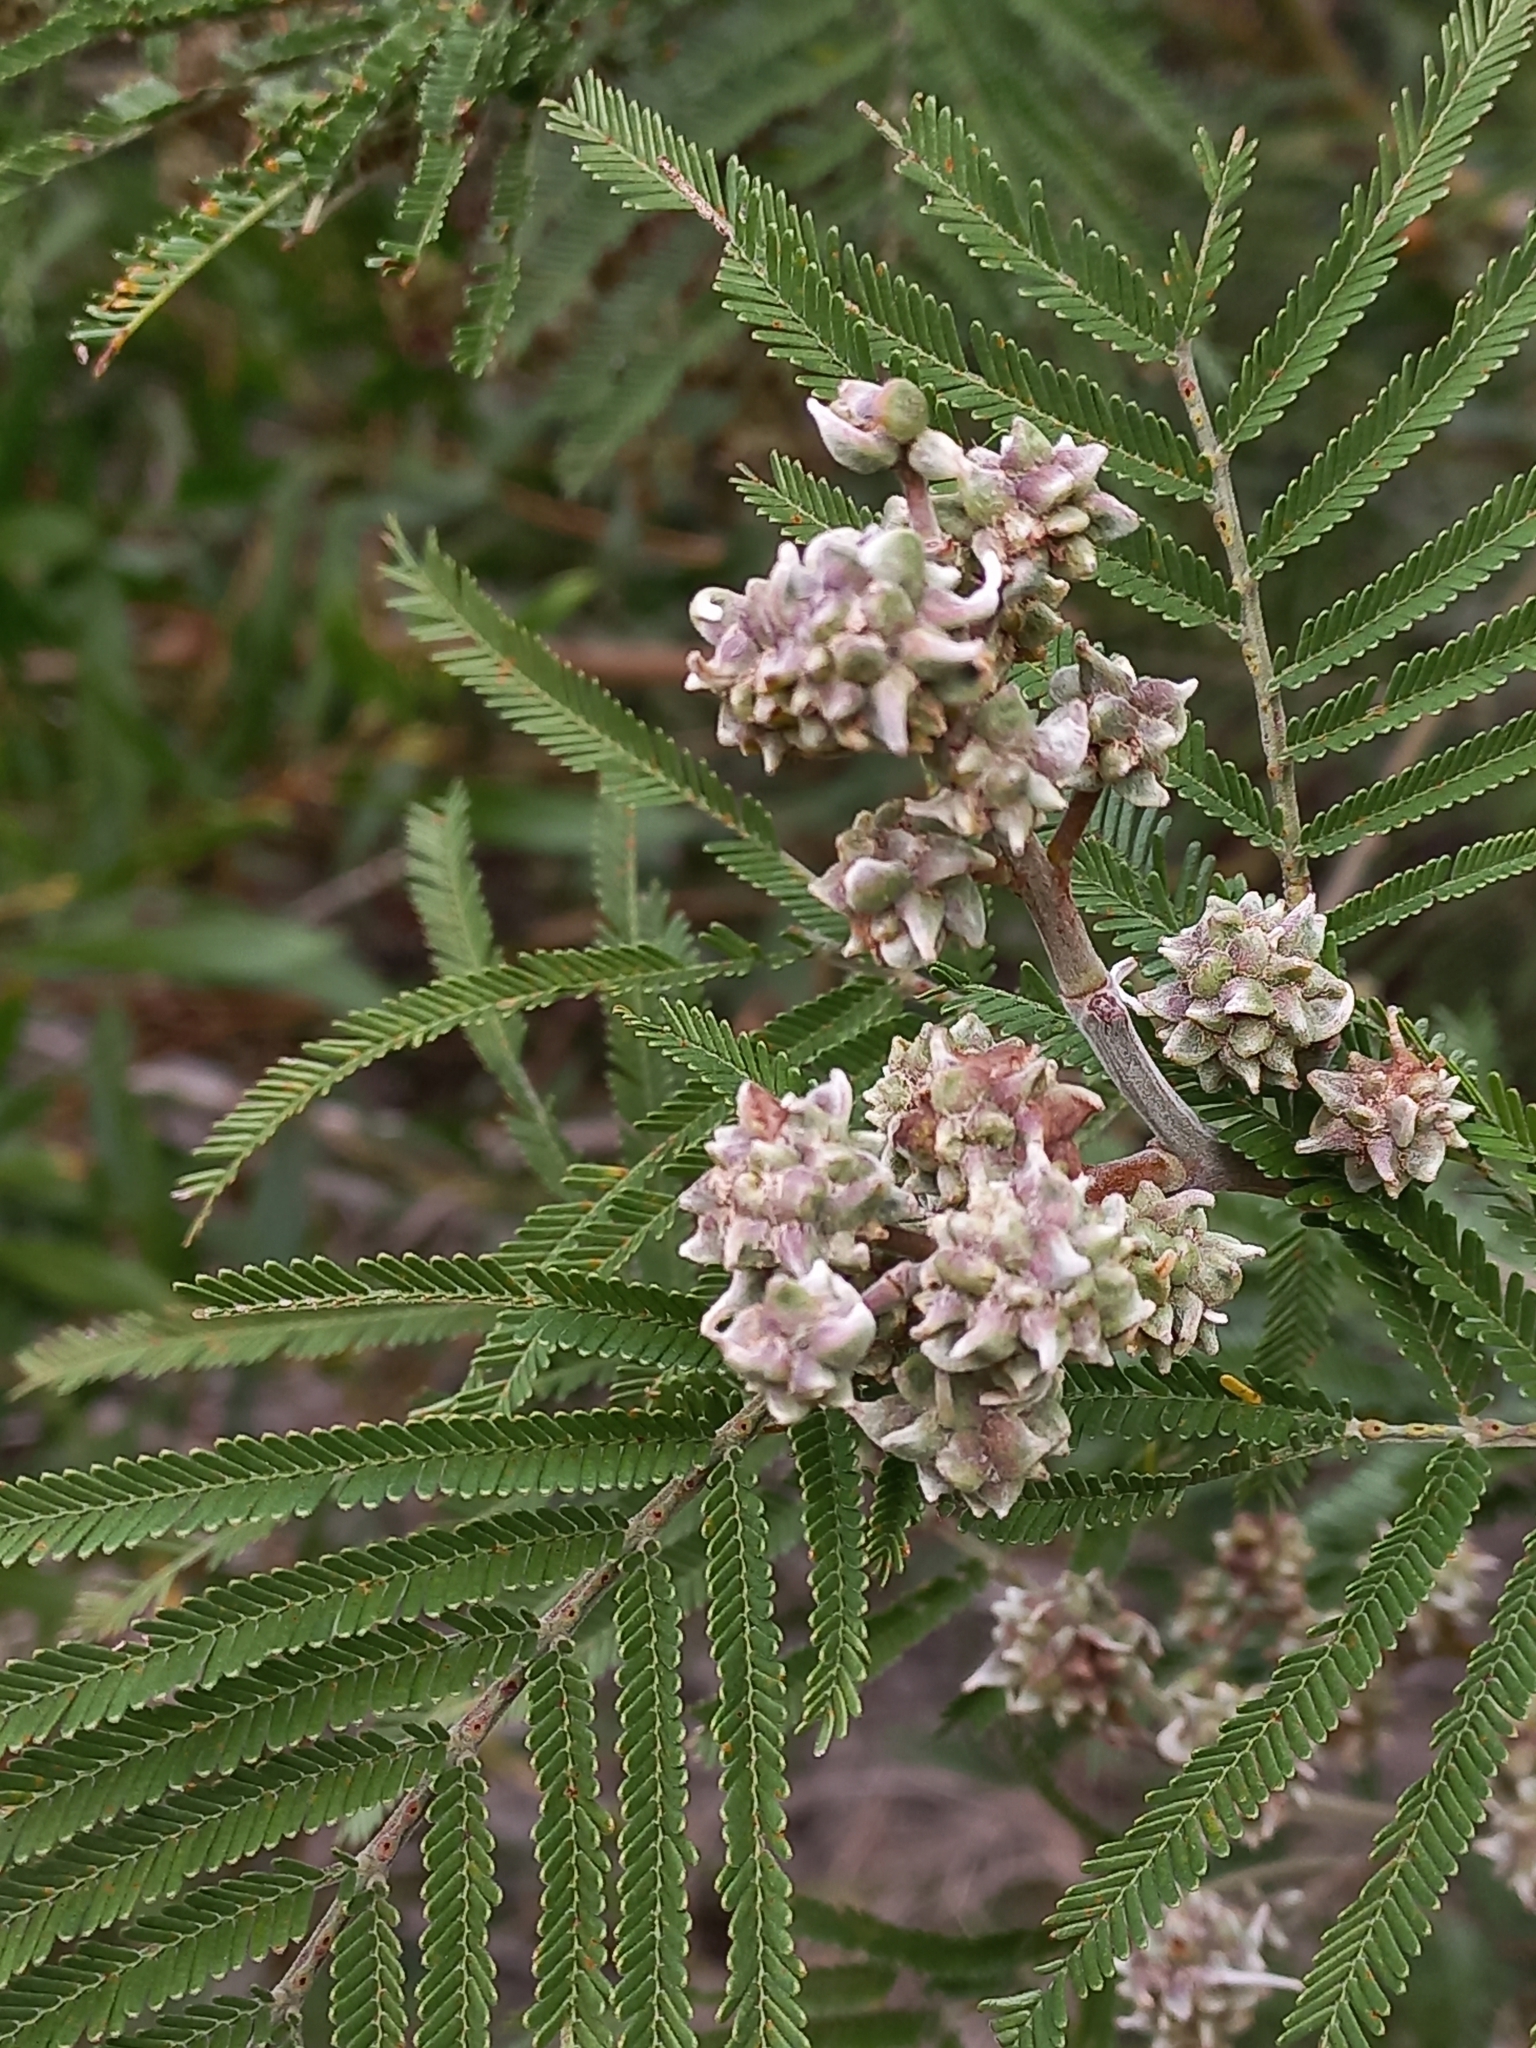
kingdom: Animalia
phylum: Arthropoda
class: Insecta
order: Diptera
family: Cecidomyiidae
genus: Dasineura
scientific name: Dasineura rubiformis
